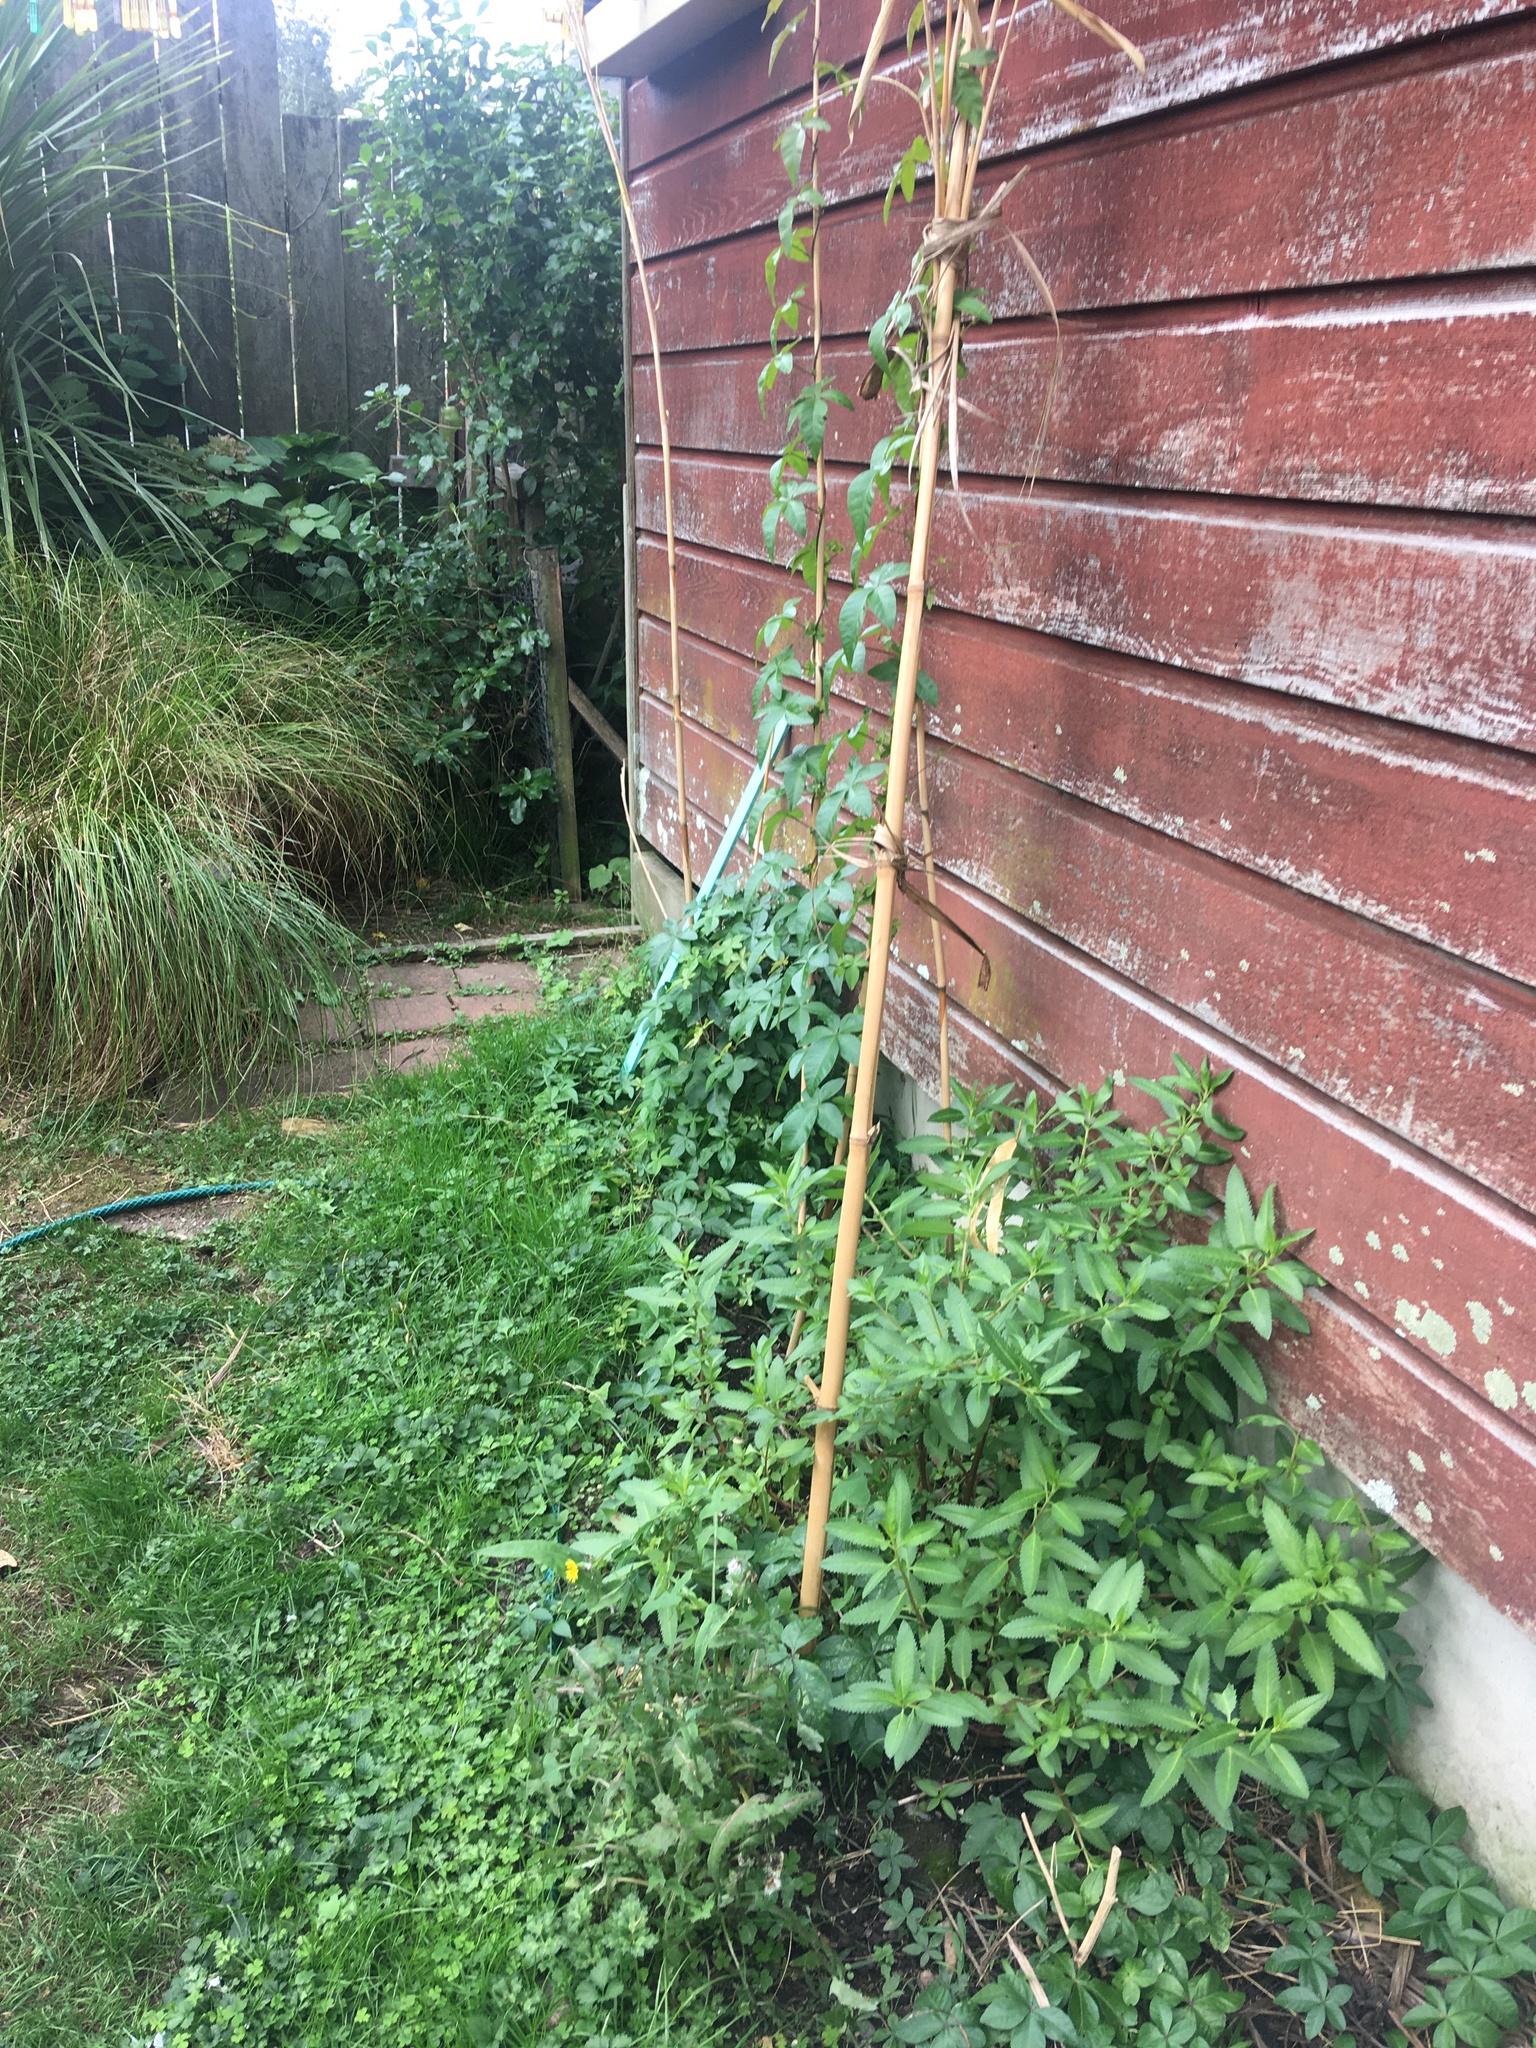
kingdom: Plantae
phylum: Tracheophyta
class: Magnoliopsida
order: Solanales
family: Convolvulaceae
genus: Ipomoea
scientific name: Ipomoea cairica
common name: Mile a minute vine
